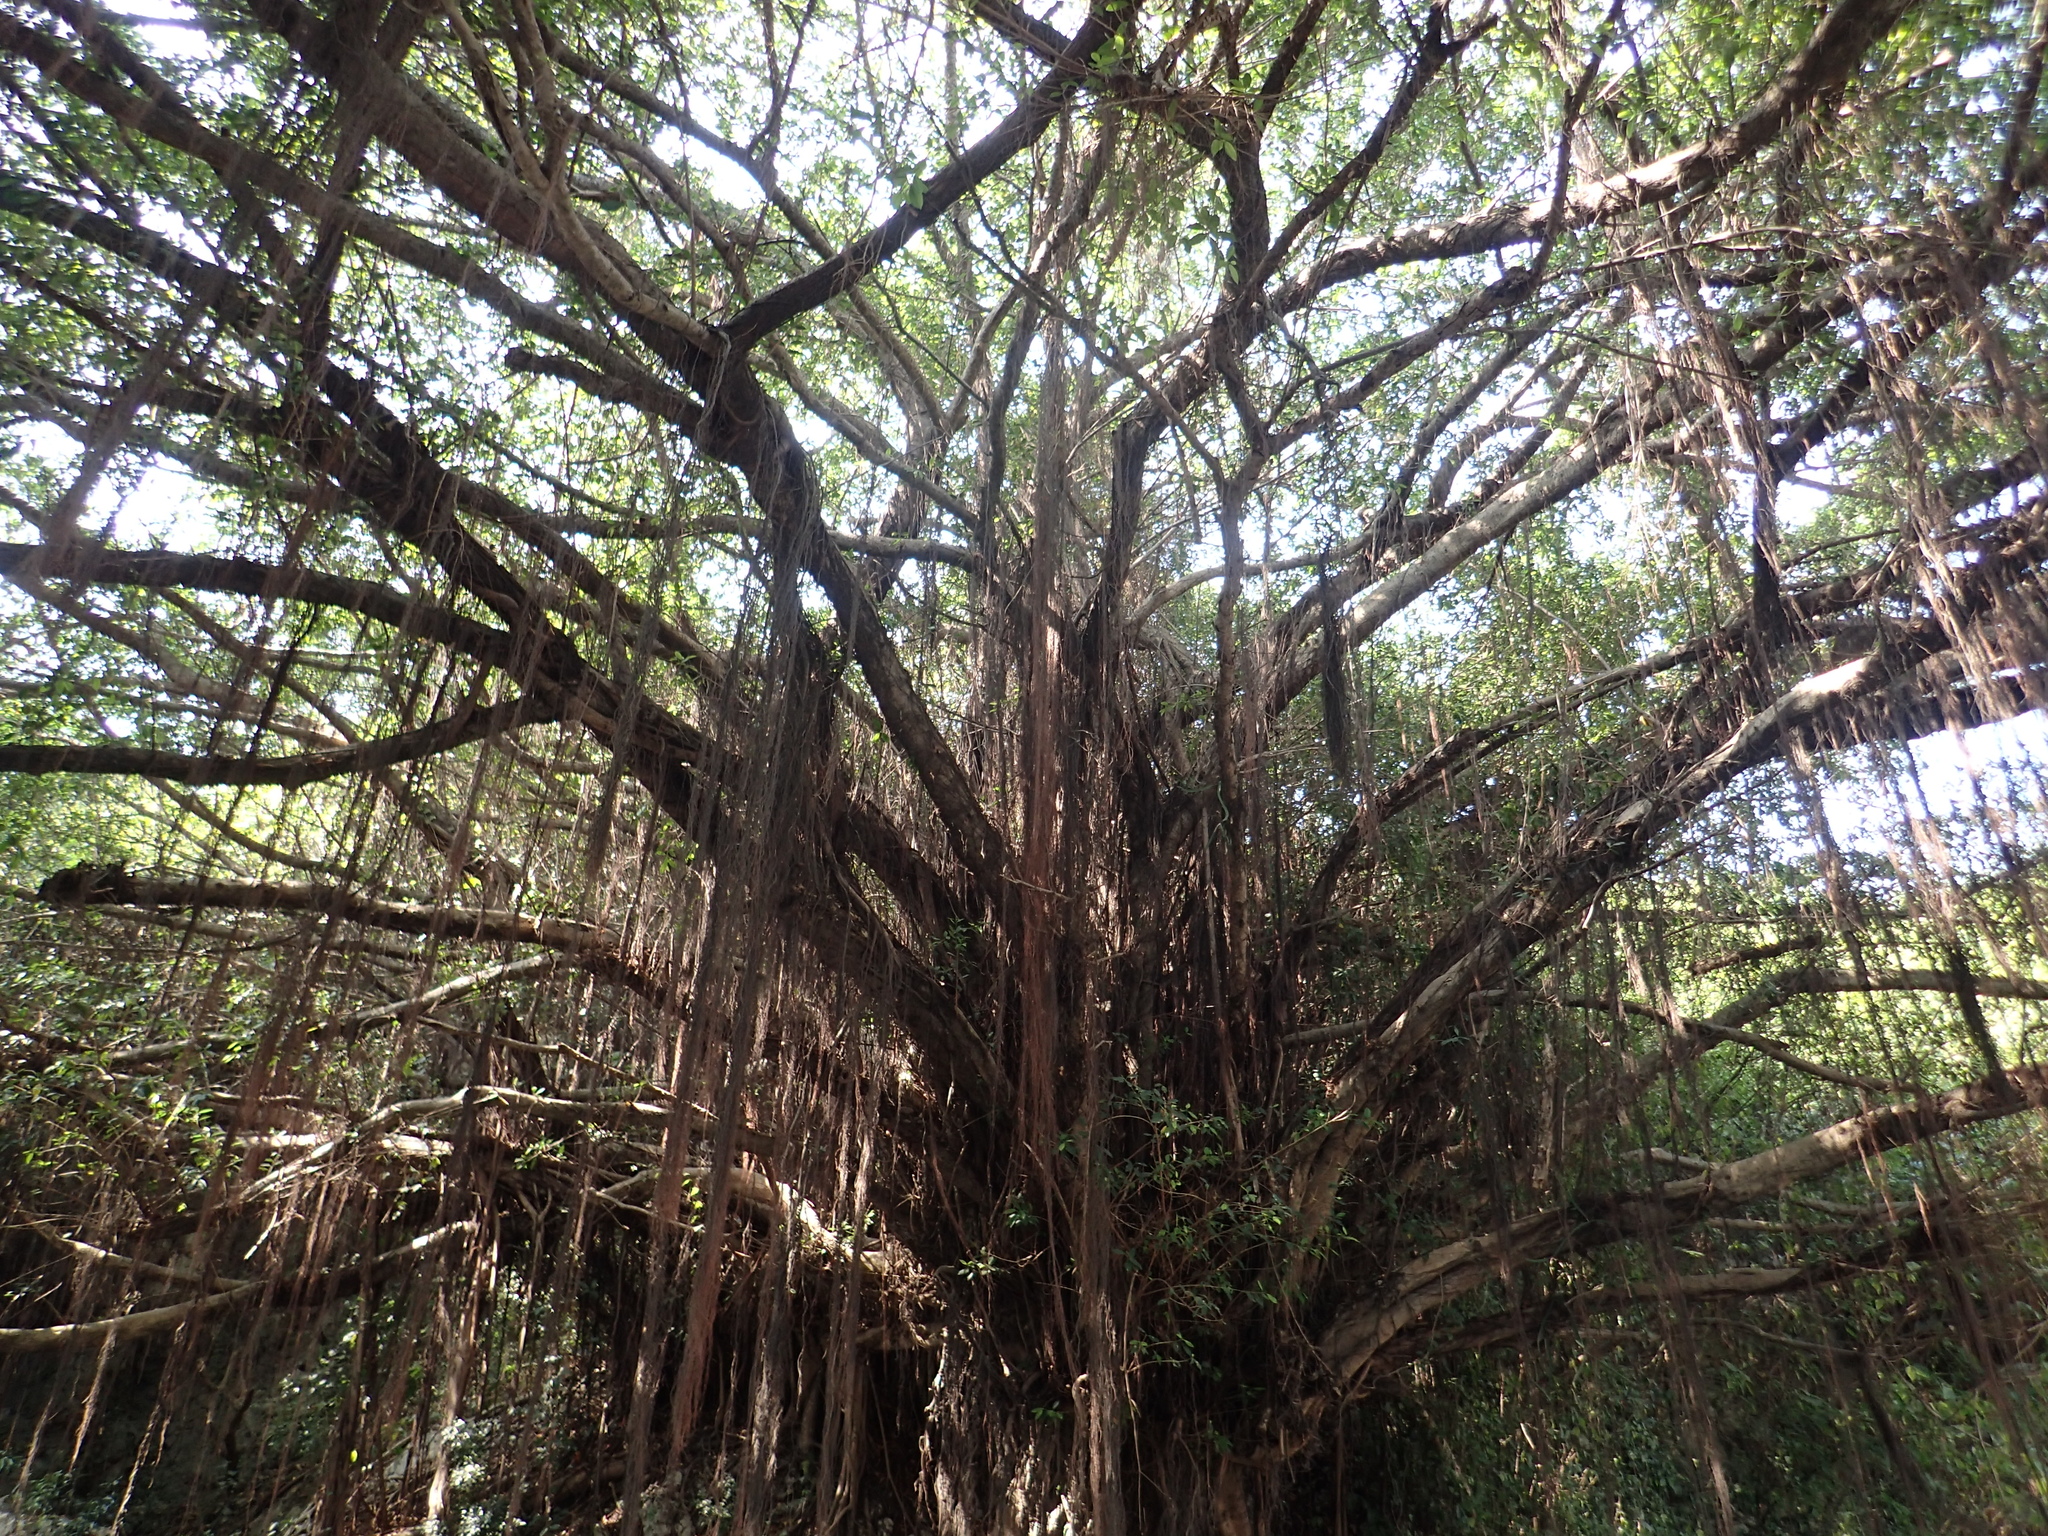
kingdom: Plantae
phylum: Tracheophyta
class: Magnoliopsida
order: Rosales
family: Moraceae
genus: Ficus
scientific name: Ficus microcarpa
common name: Chinese banyan
